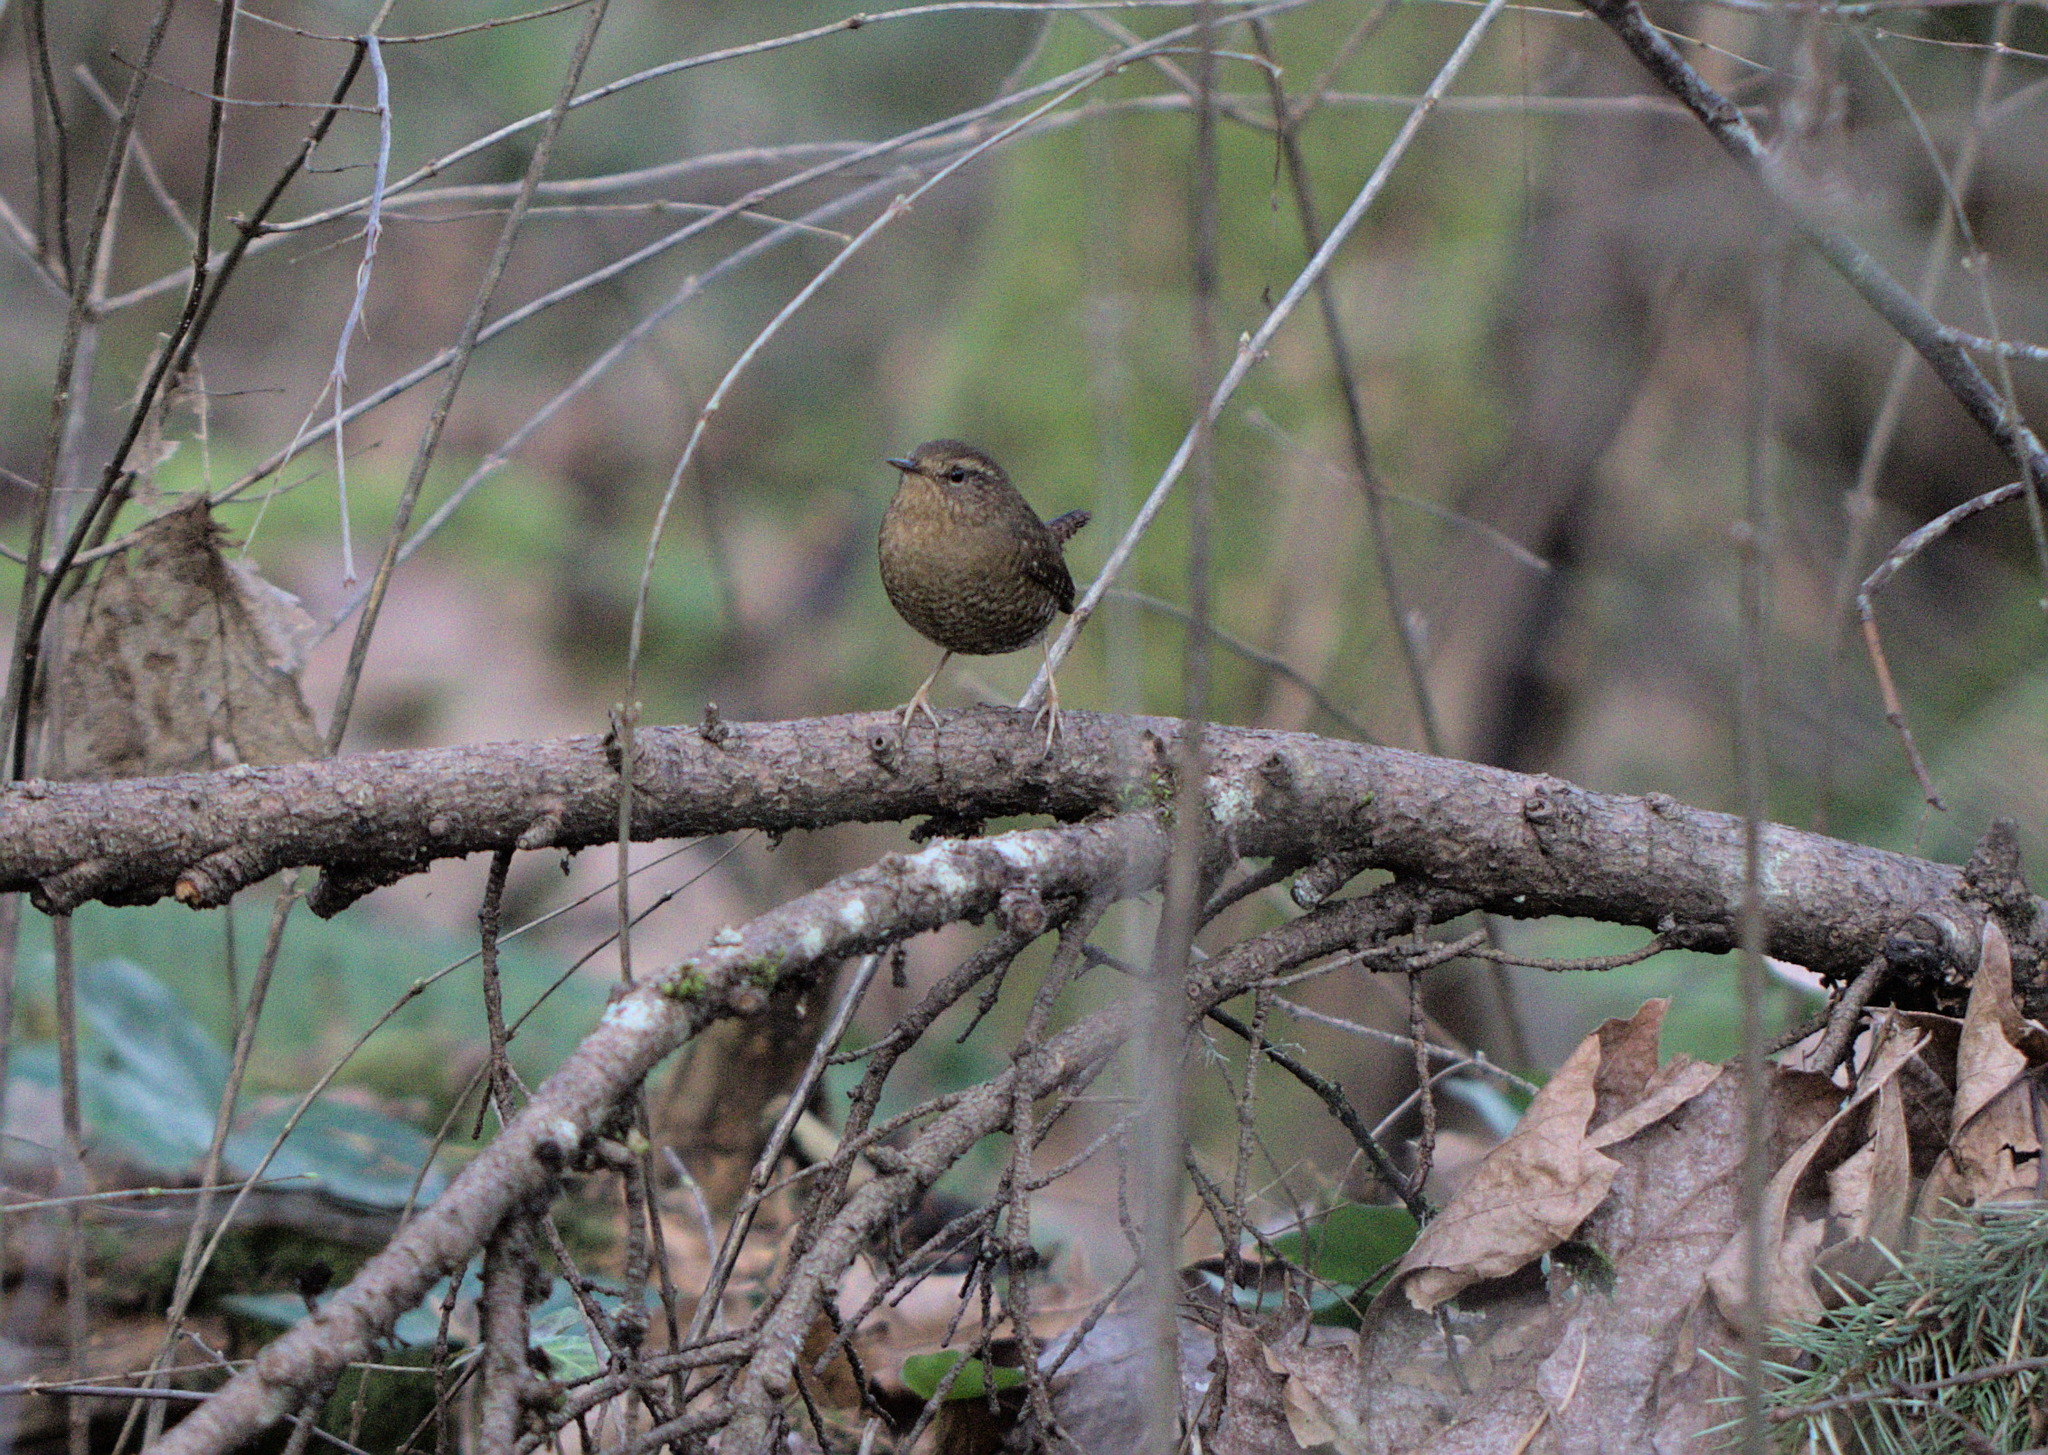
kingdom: Animalia
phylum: Chordata
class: Aves
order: Passeriformes
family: Troglodytidae
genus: Troglodytes
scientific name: Troglodytes pacificus
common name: Pacific wren
